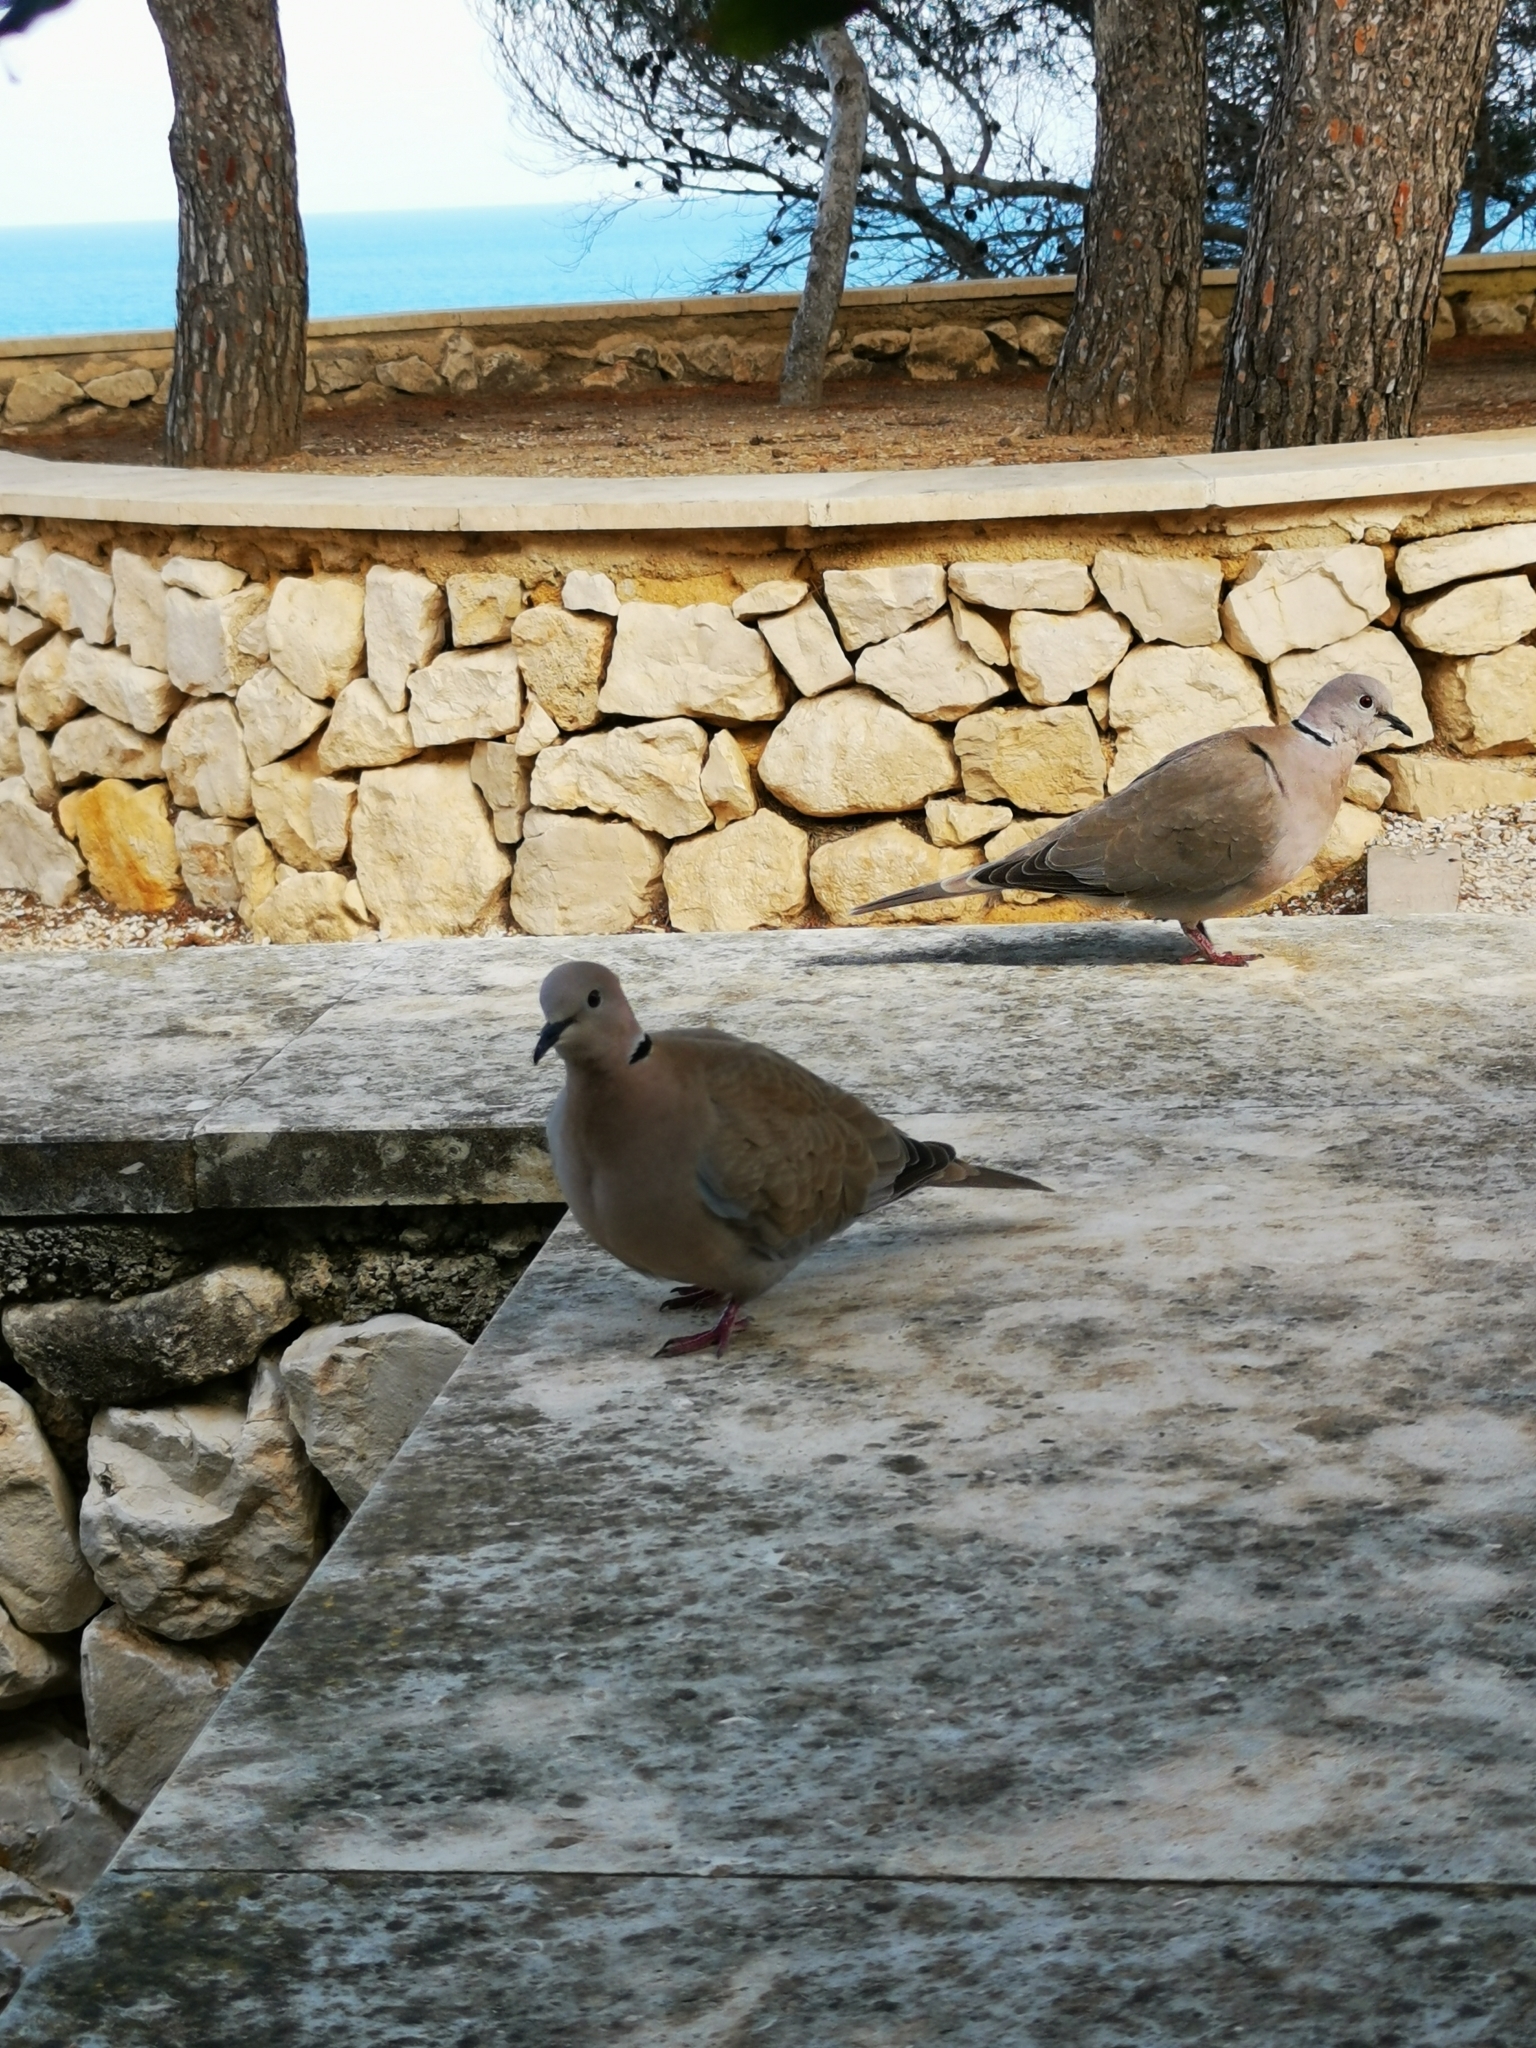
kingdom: Animalia
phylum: Chordata
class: Aves
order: Columbiformes
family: Columbidae
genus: Streptopelia
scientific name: Streptopelia decaocto
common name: Eurasian collared dove
